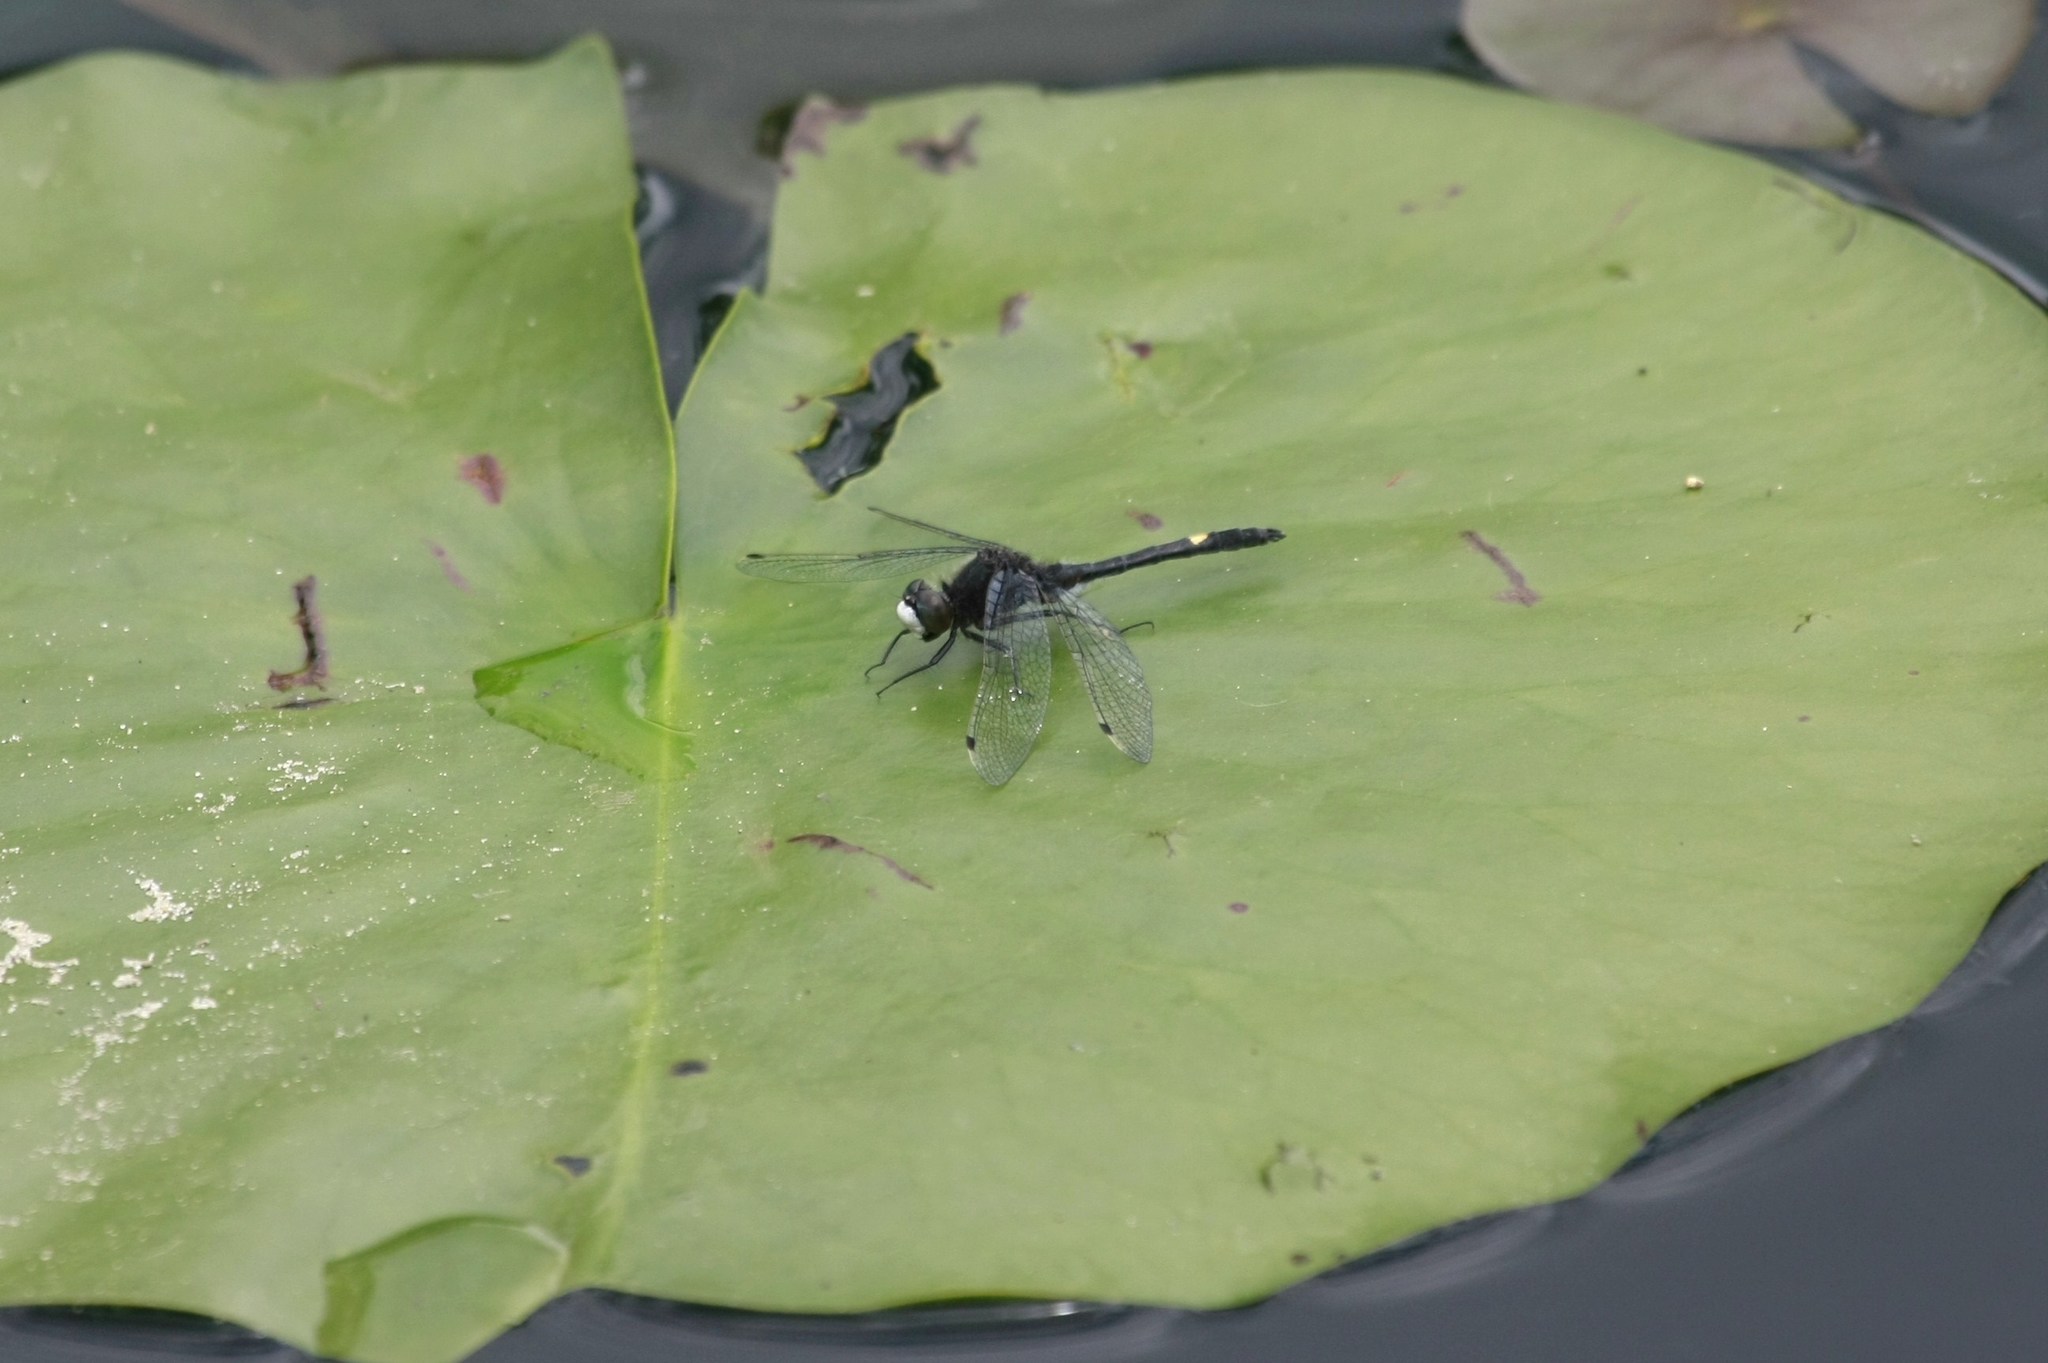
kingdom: Animalia
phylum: Arthropoda
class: Insecta
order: Odonata
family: Libellulidae
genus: Leucorrhinia
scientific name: Leucorrhinia intacta
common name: Dot-tailed whiteface
